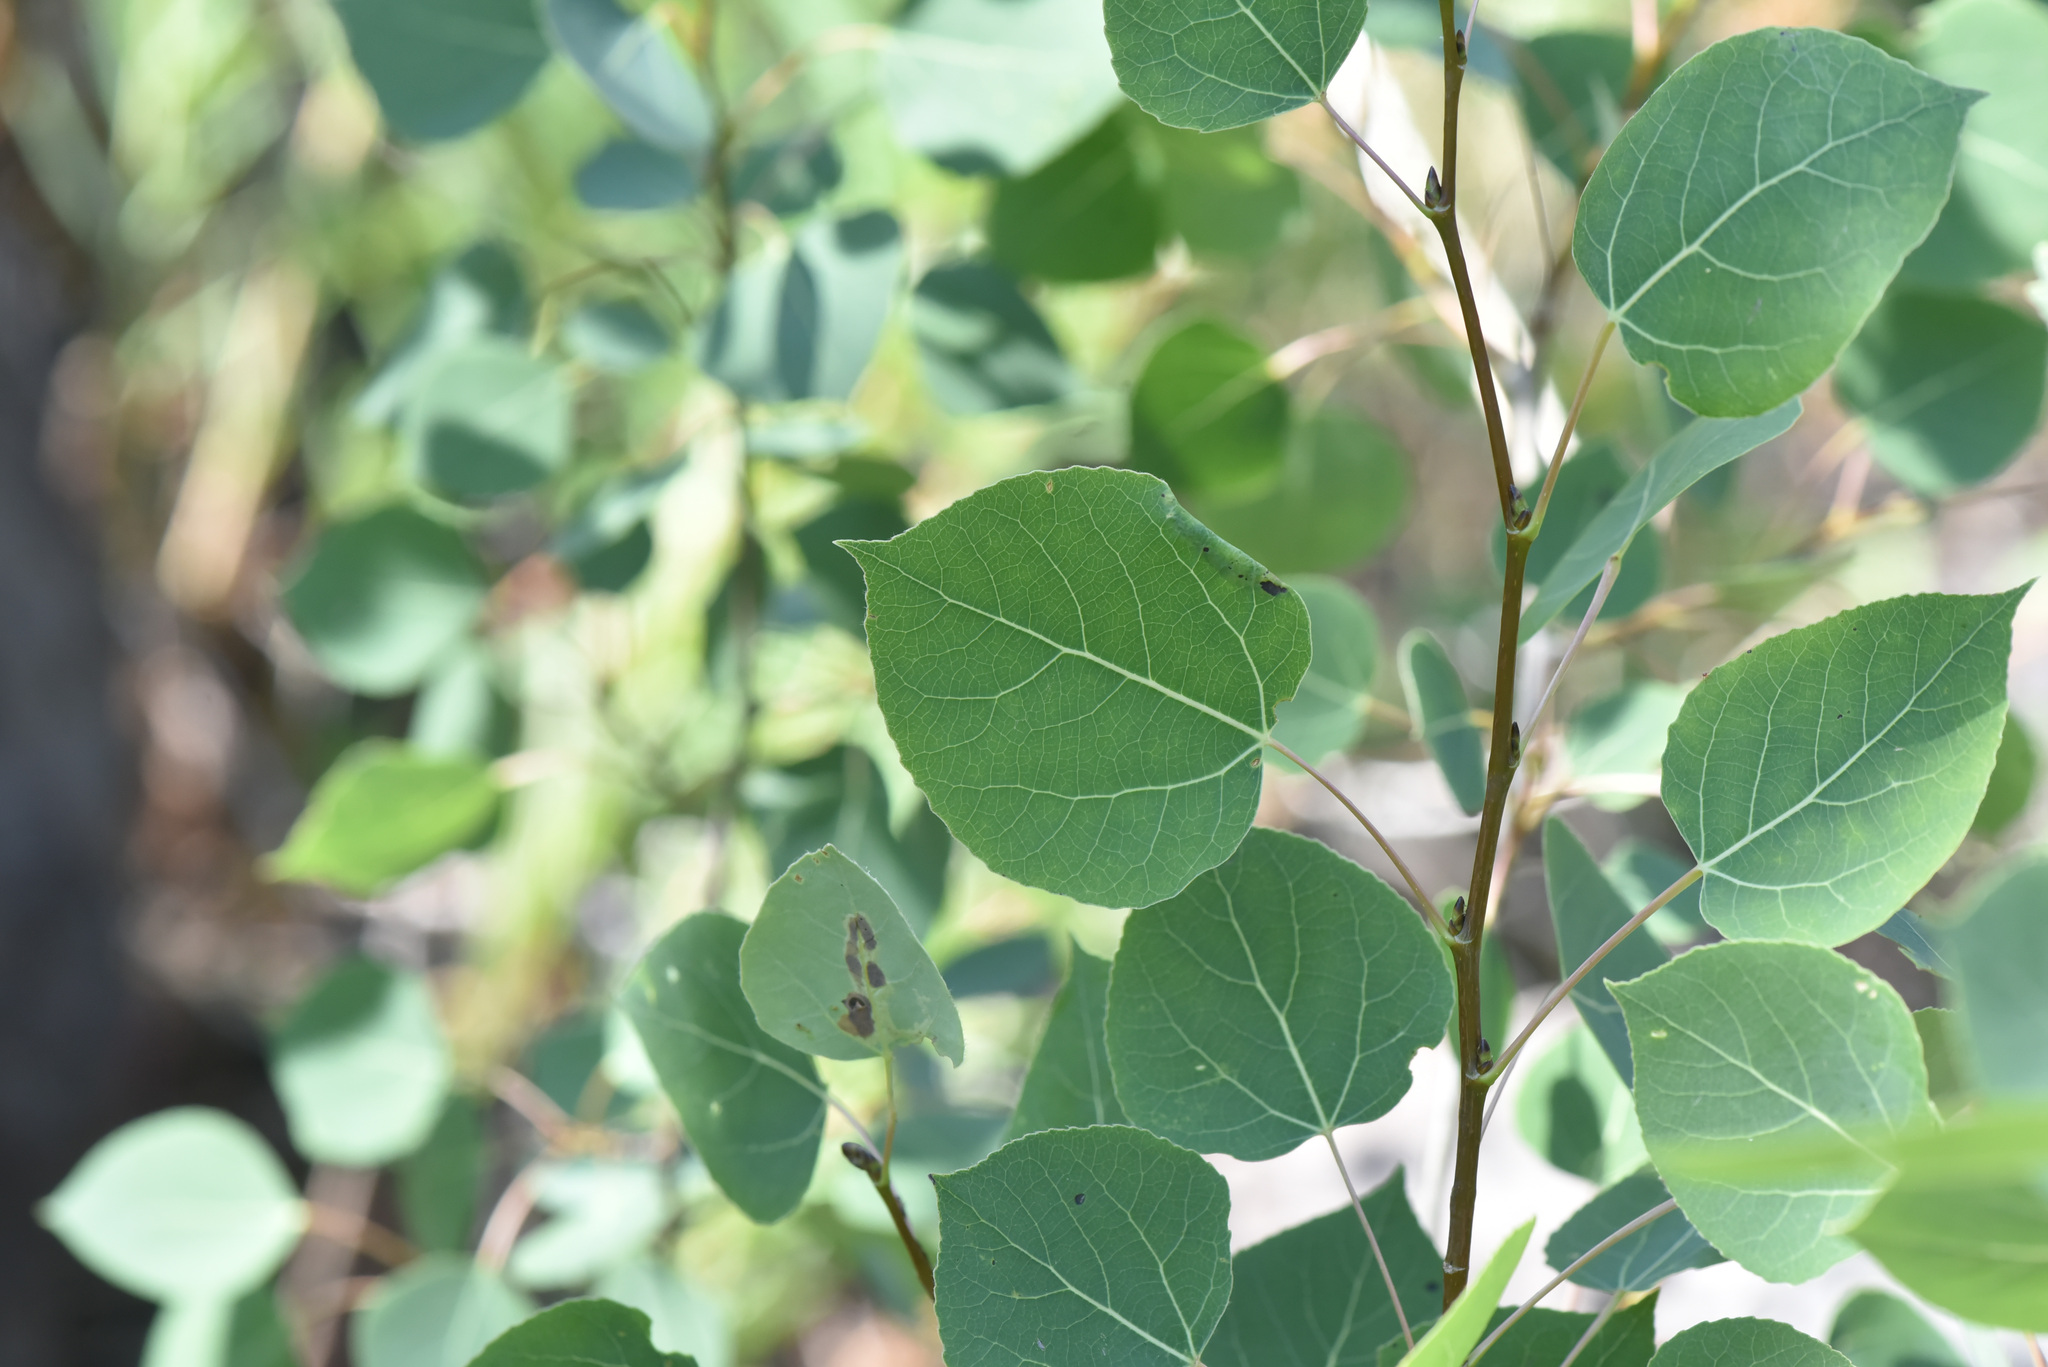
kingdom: Plantae
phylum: Tracheophyta
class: Magnoliopsida
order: Malpighiales
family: Salicaceae
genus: Populus
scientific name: Populus tremuloides
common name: Quaking aspen
